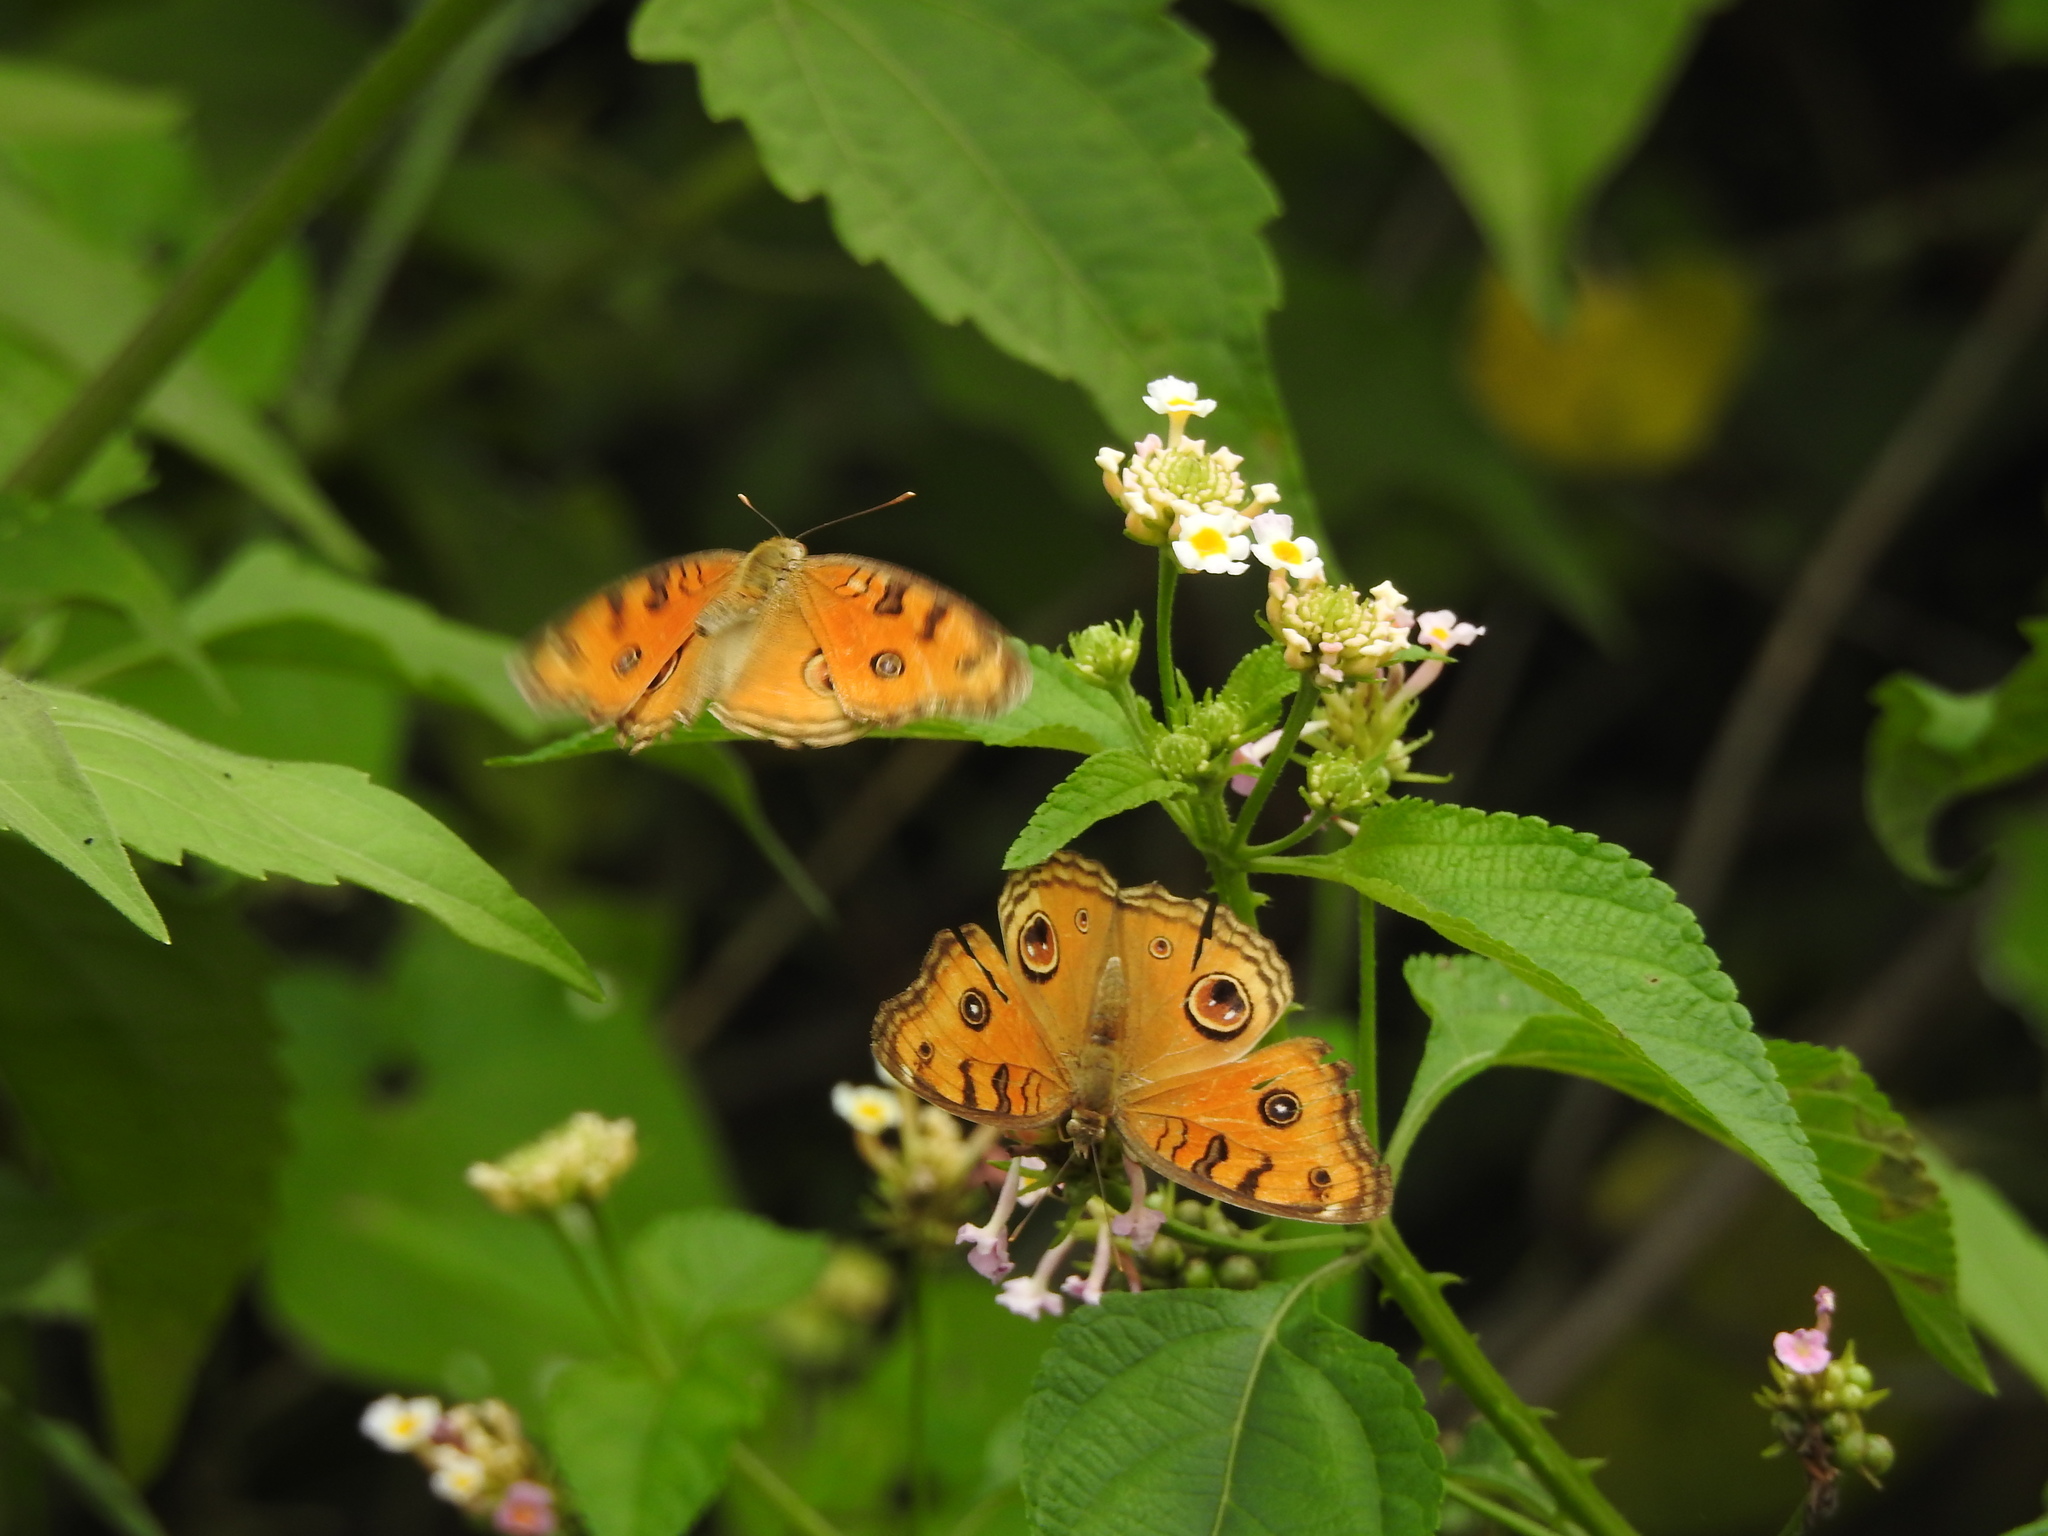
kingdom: Animalia
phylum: Arthropoda
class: Insecta
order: Lepidoptera
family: Nymphalidae
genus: Junonia
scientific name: Junonia almana
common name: Peacock pansy
